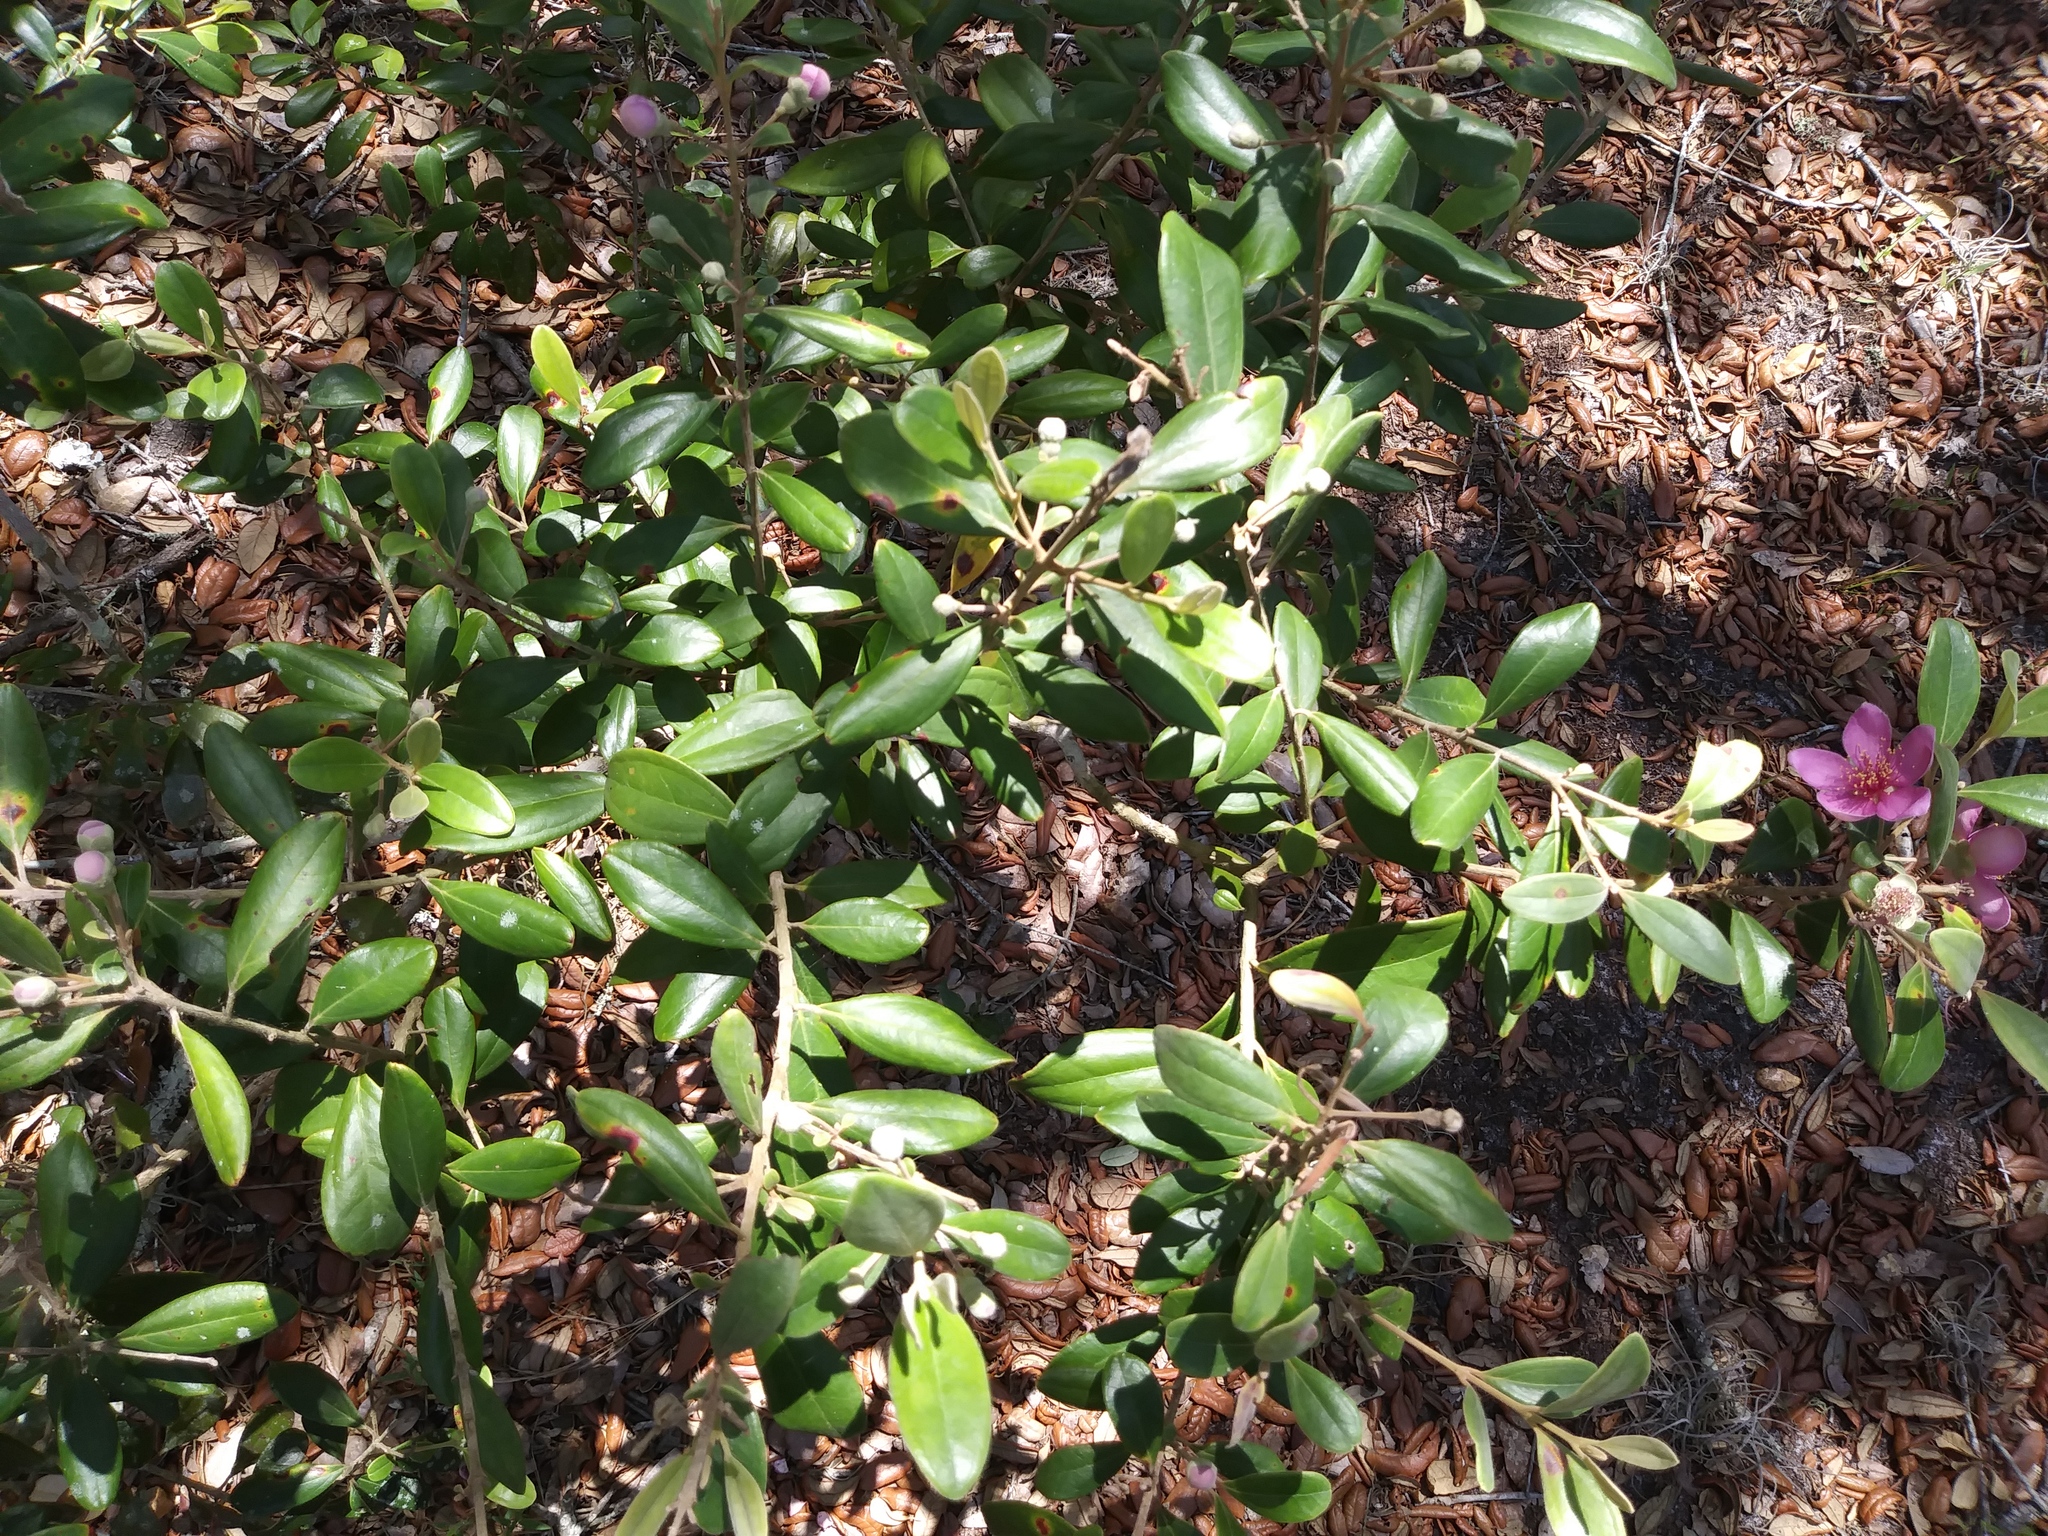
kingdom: Plantae
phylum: Tracheophyta
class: Magnoliopsida
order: Myrtales
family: Myrtaceae
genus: Rhodomyrtus
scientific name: Rhodomyrtus tomentosa
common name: Rose myrtle
